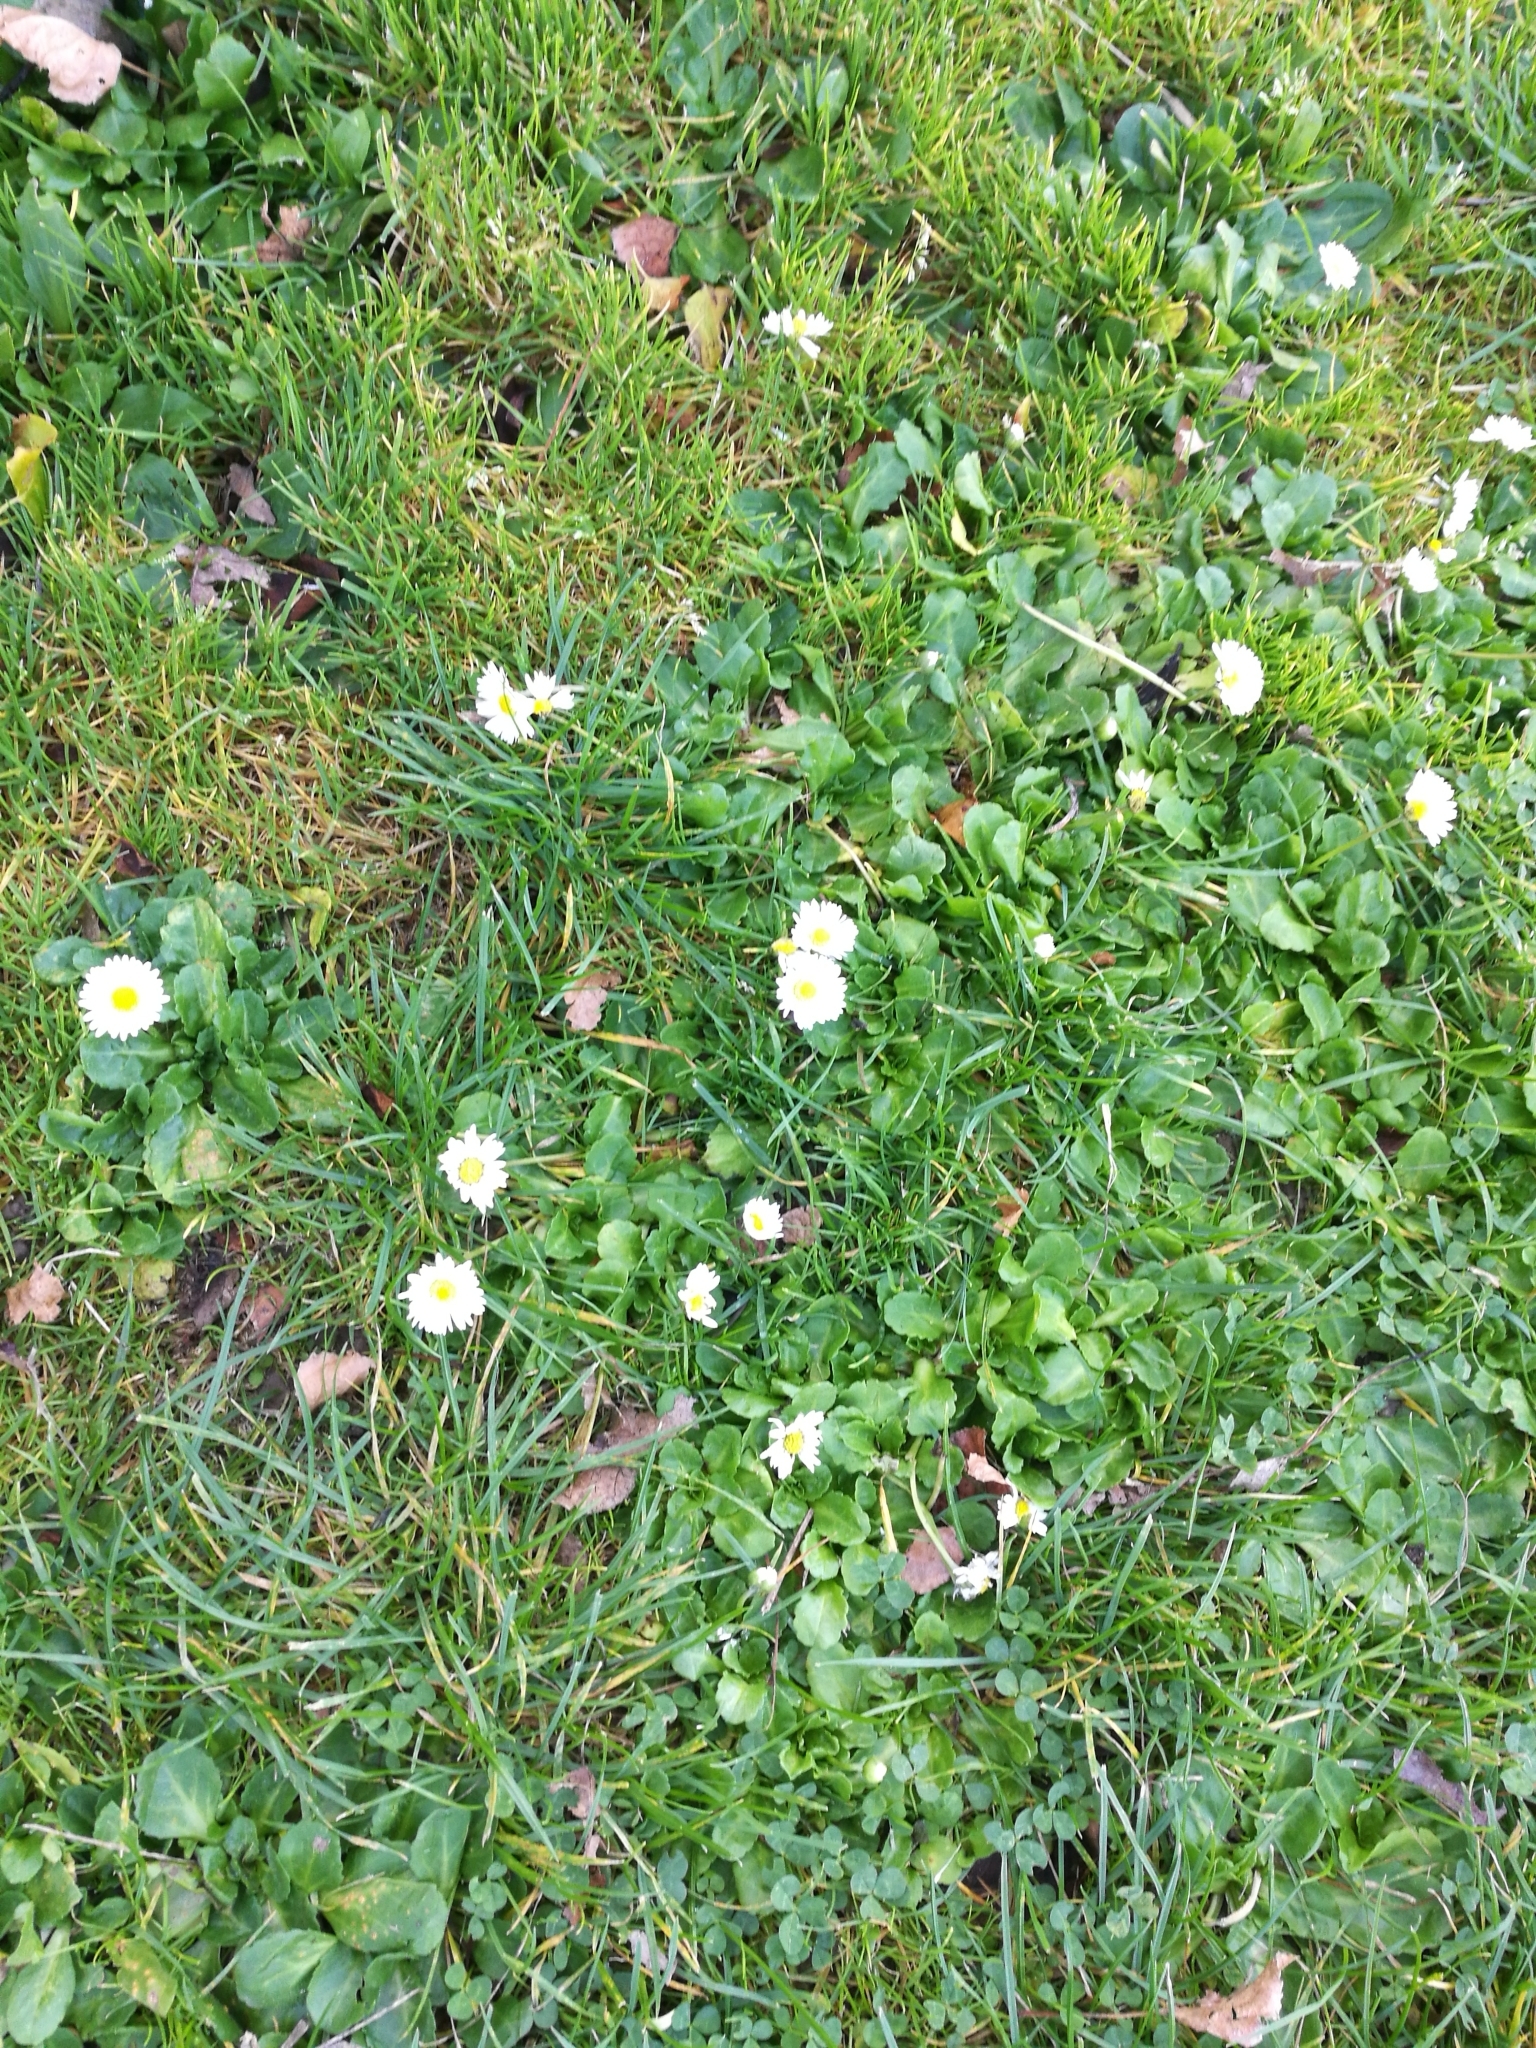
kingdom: Plantae
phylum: Tracheophyta
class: Magnoliopsida
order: Asterales
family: Asteraceae
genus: Bellis
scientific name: Bellis perennis
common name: Lawndaisy
